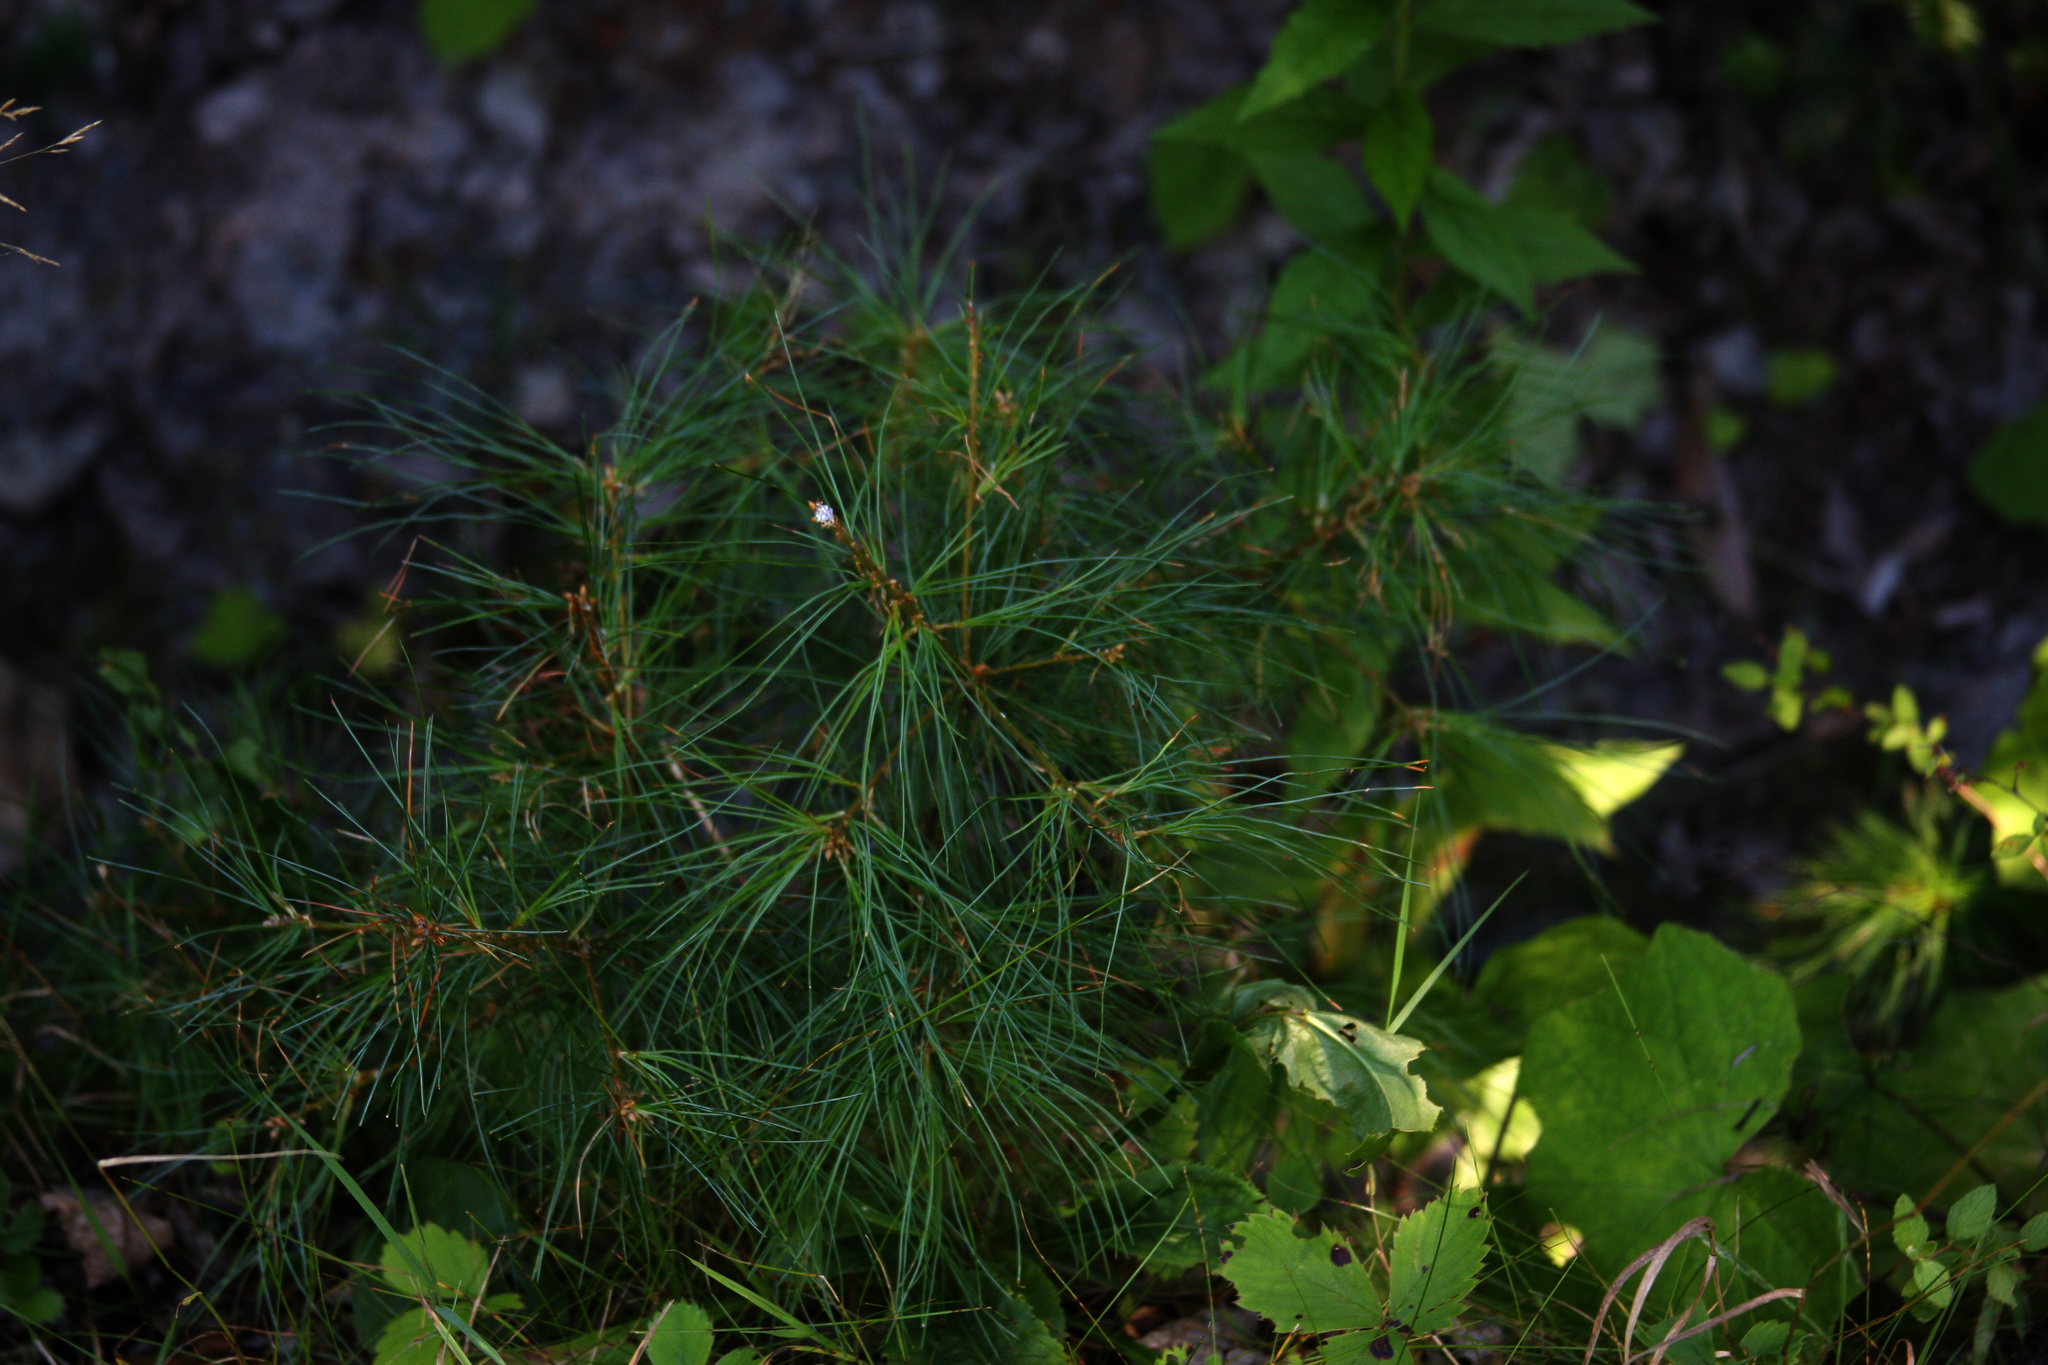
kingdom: Plantae
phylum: Tracheophyta
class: Pinopsida
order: Pinales
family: Pinaceae
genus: Pinus
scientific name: Pinus strobus
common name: Weymouth pine
